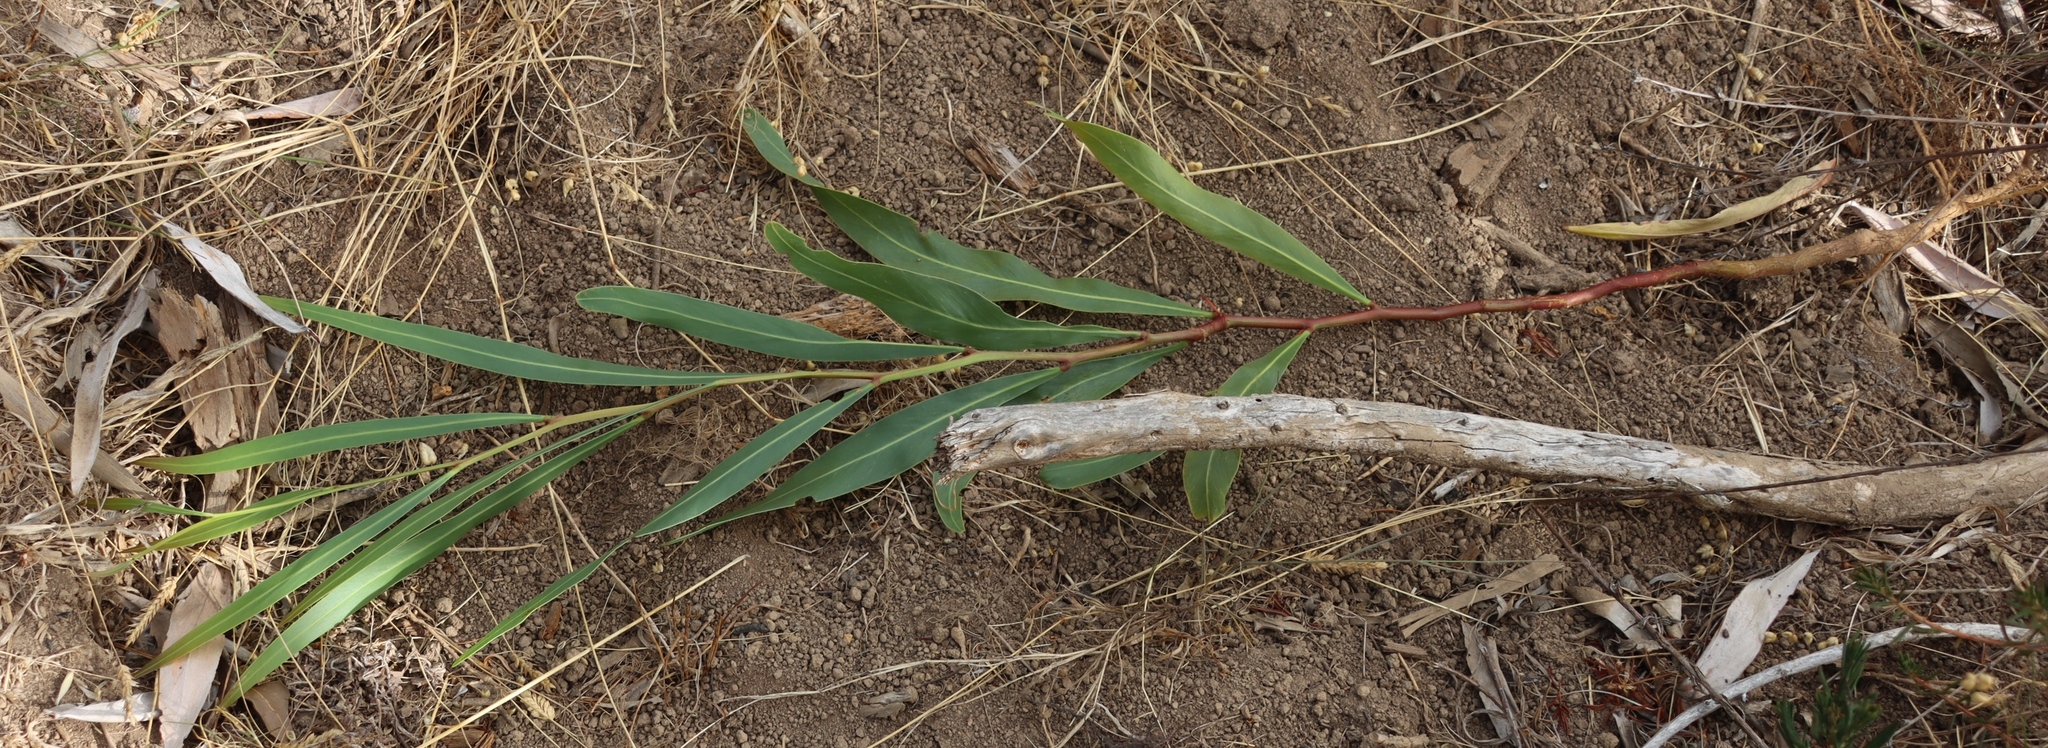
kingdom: Plantae
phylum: Tracheophyta
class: Magnoliopsida
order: Fabales
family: Fabaceae
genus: Acacia
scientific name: Acacia saligna
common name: Orange wattle
